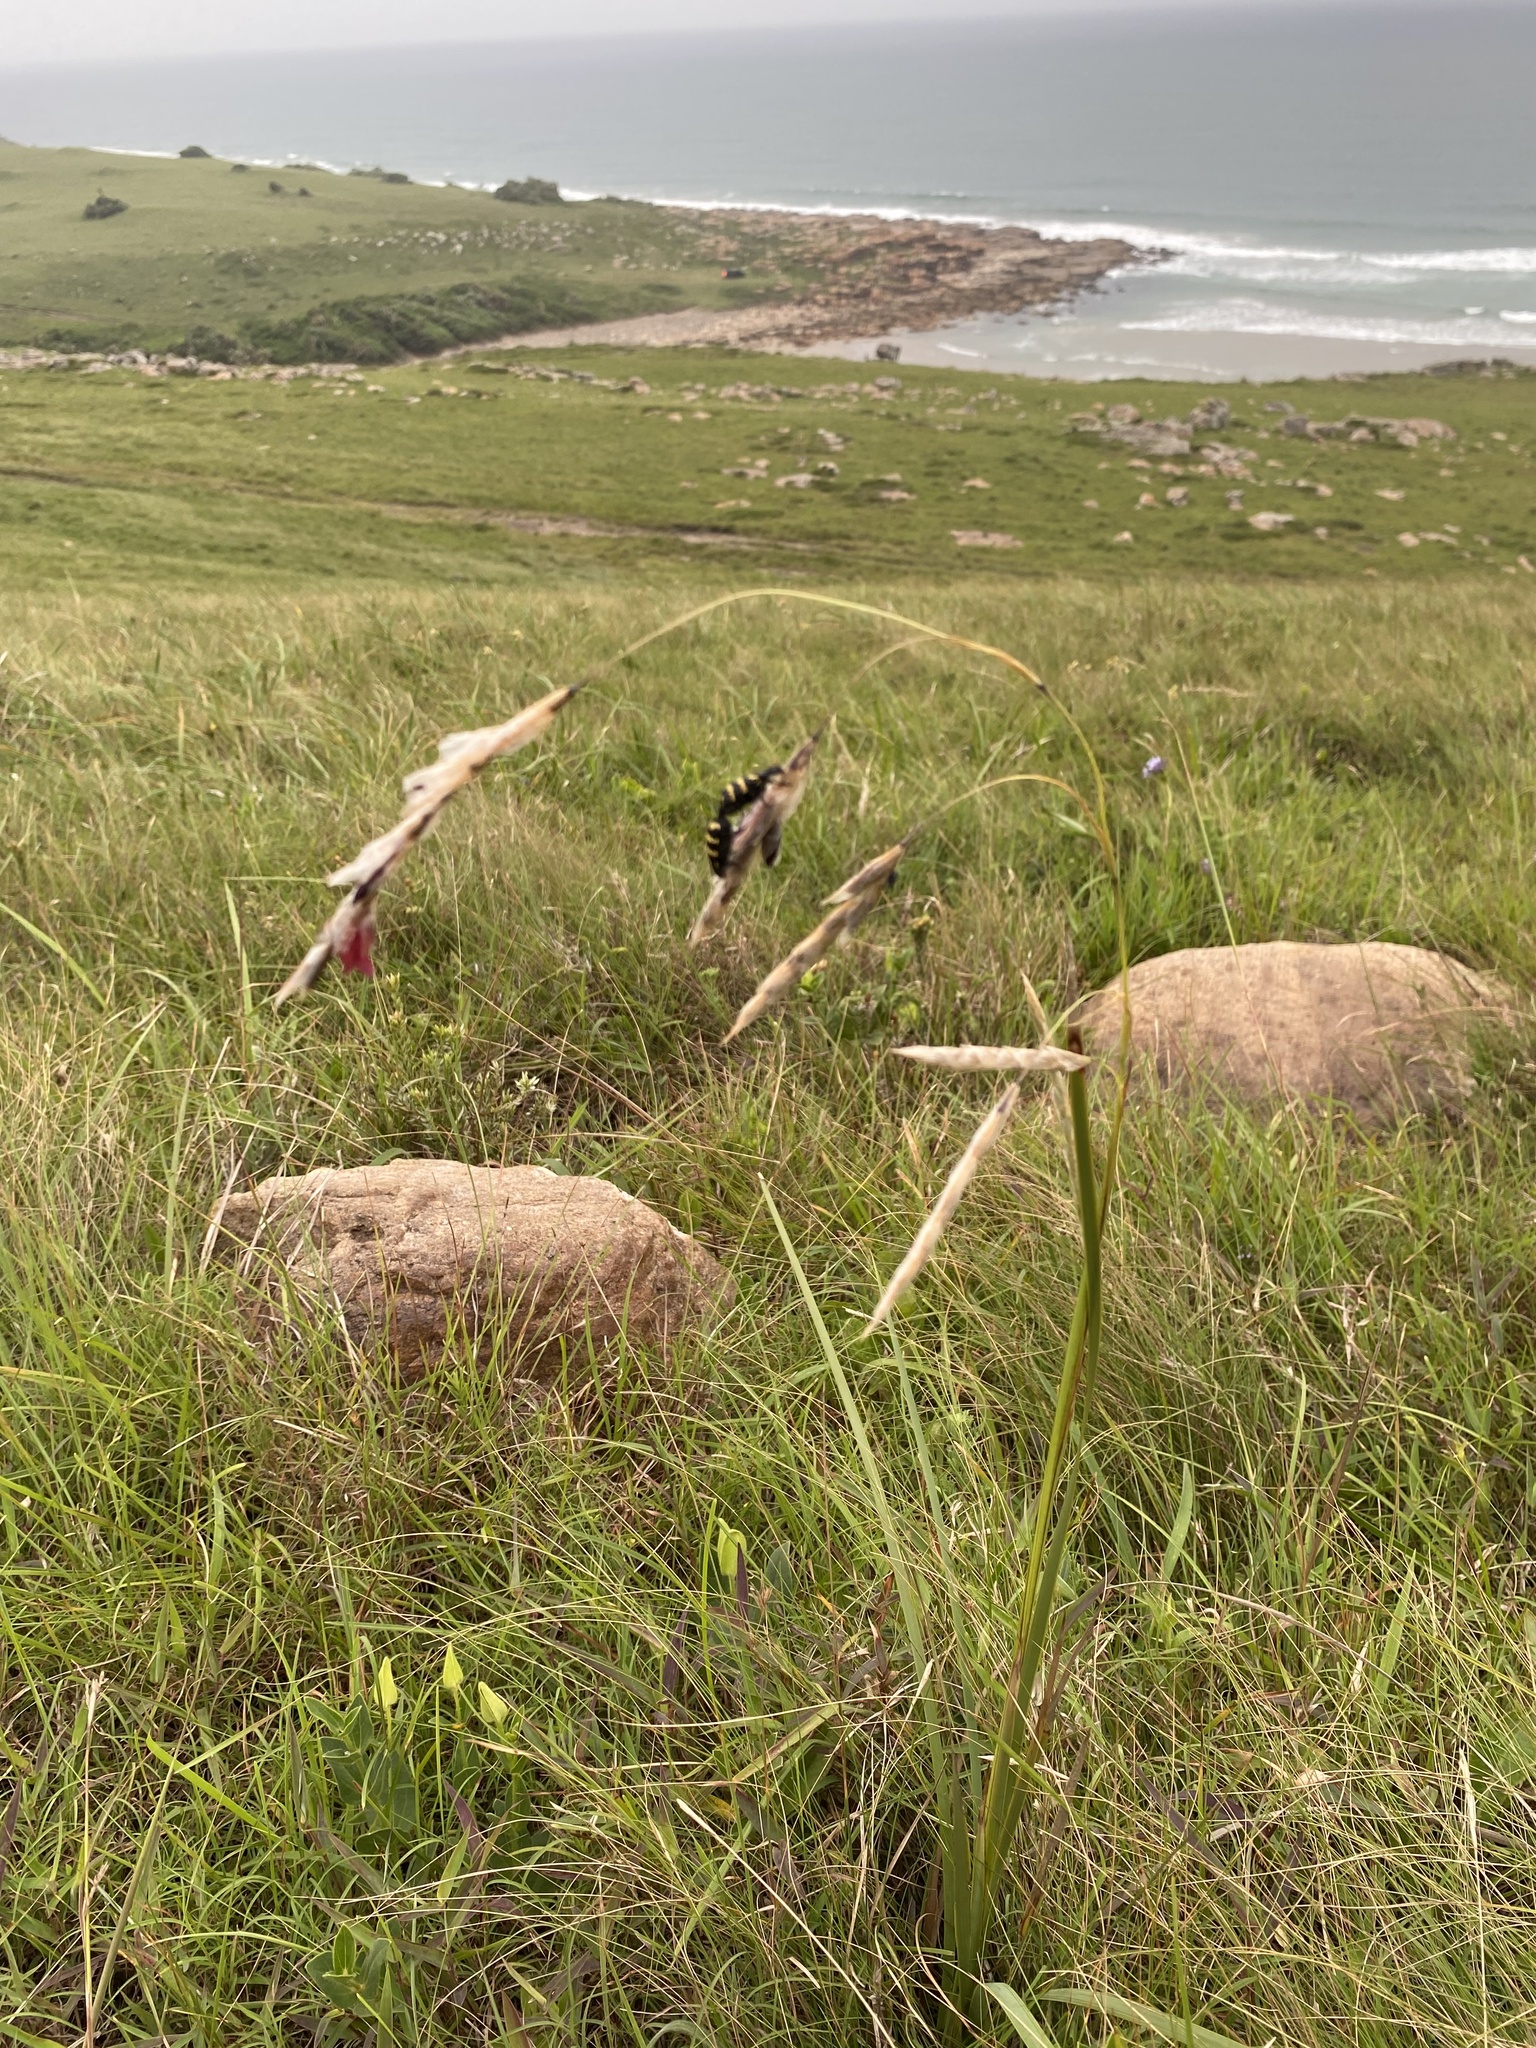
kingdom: Plantae
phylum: Tracheophyta
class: Liliopsida
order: Asparagales
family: Iridaceae
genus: Dierama
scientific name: Dierama reynoldsii
